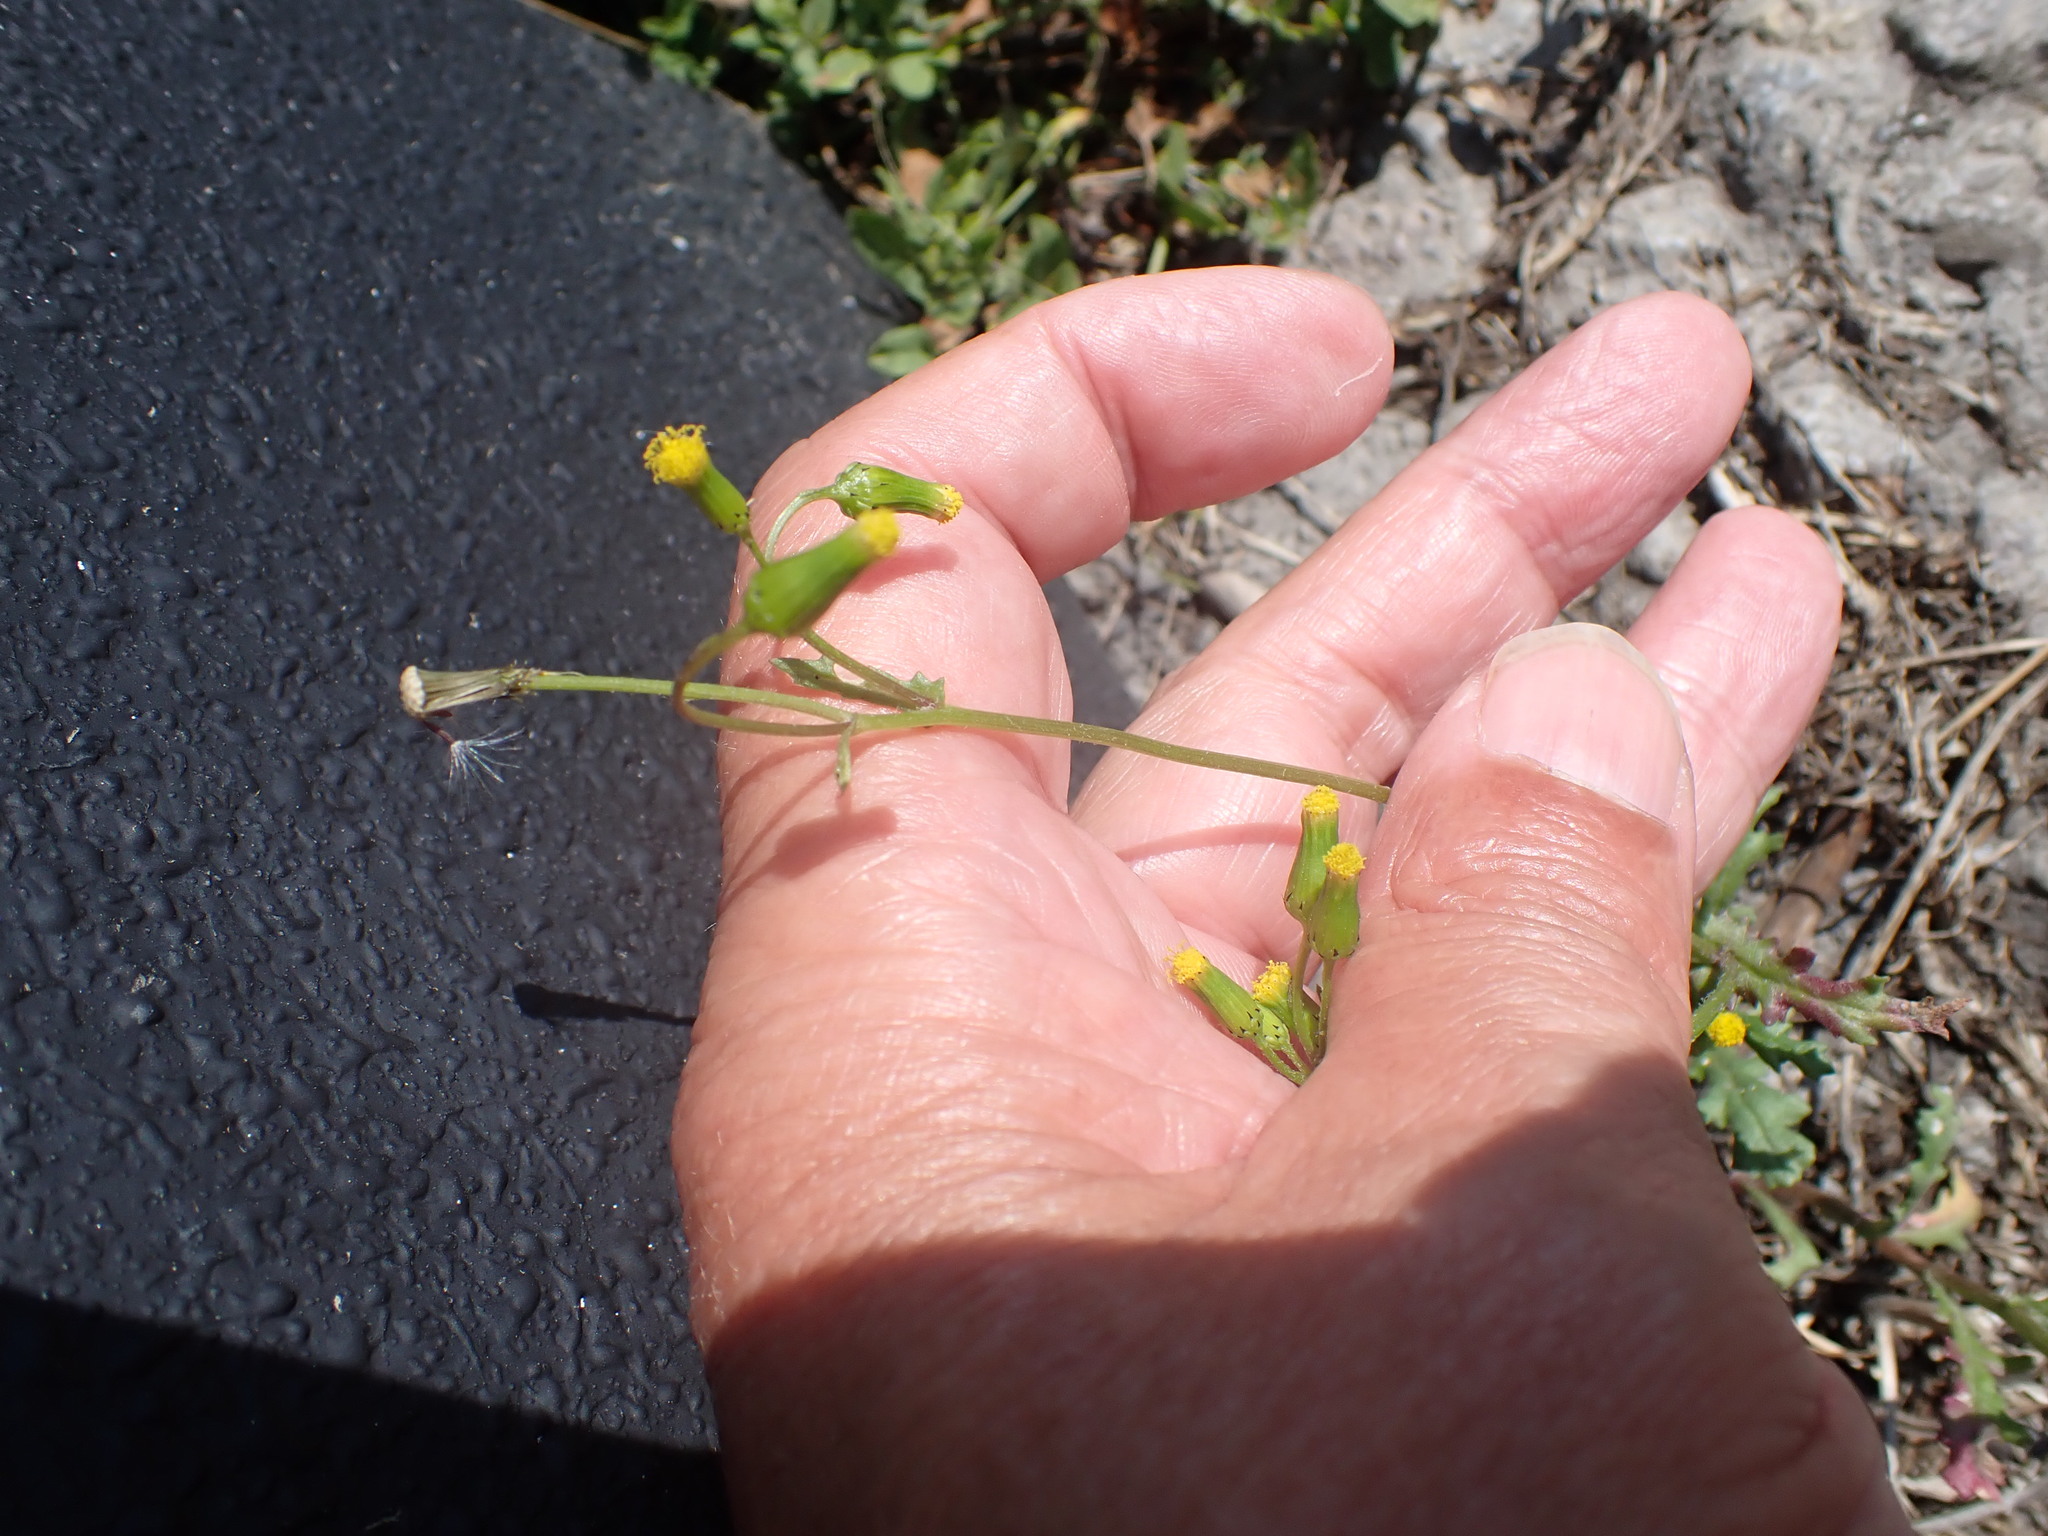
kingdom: Plantae
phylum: Tracheophyta
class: Magnoliopsida
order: Asterales
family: Asteraceae
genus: Senecio
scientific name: Senecio vulgaris
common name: Old-man-in-the-spring
